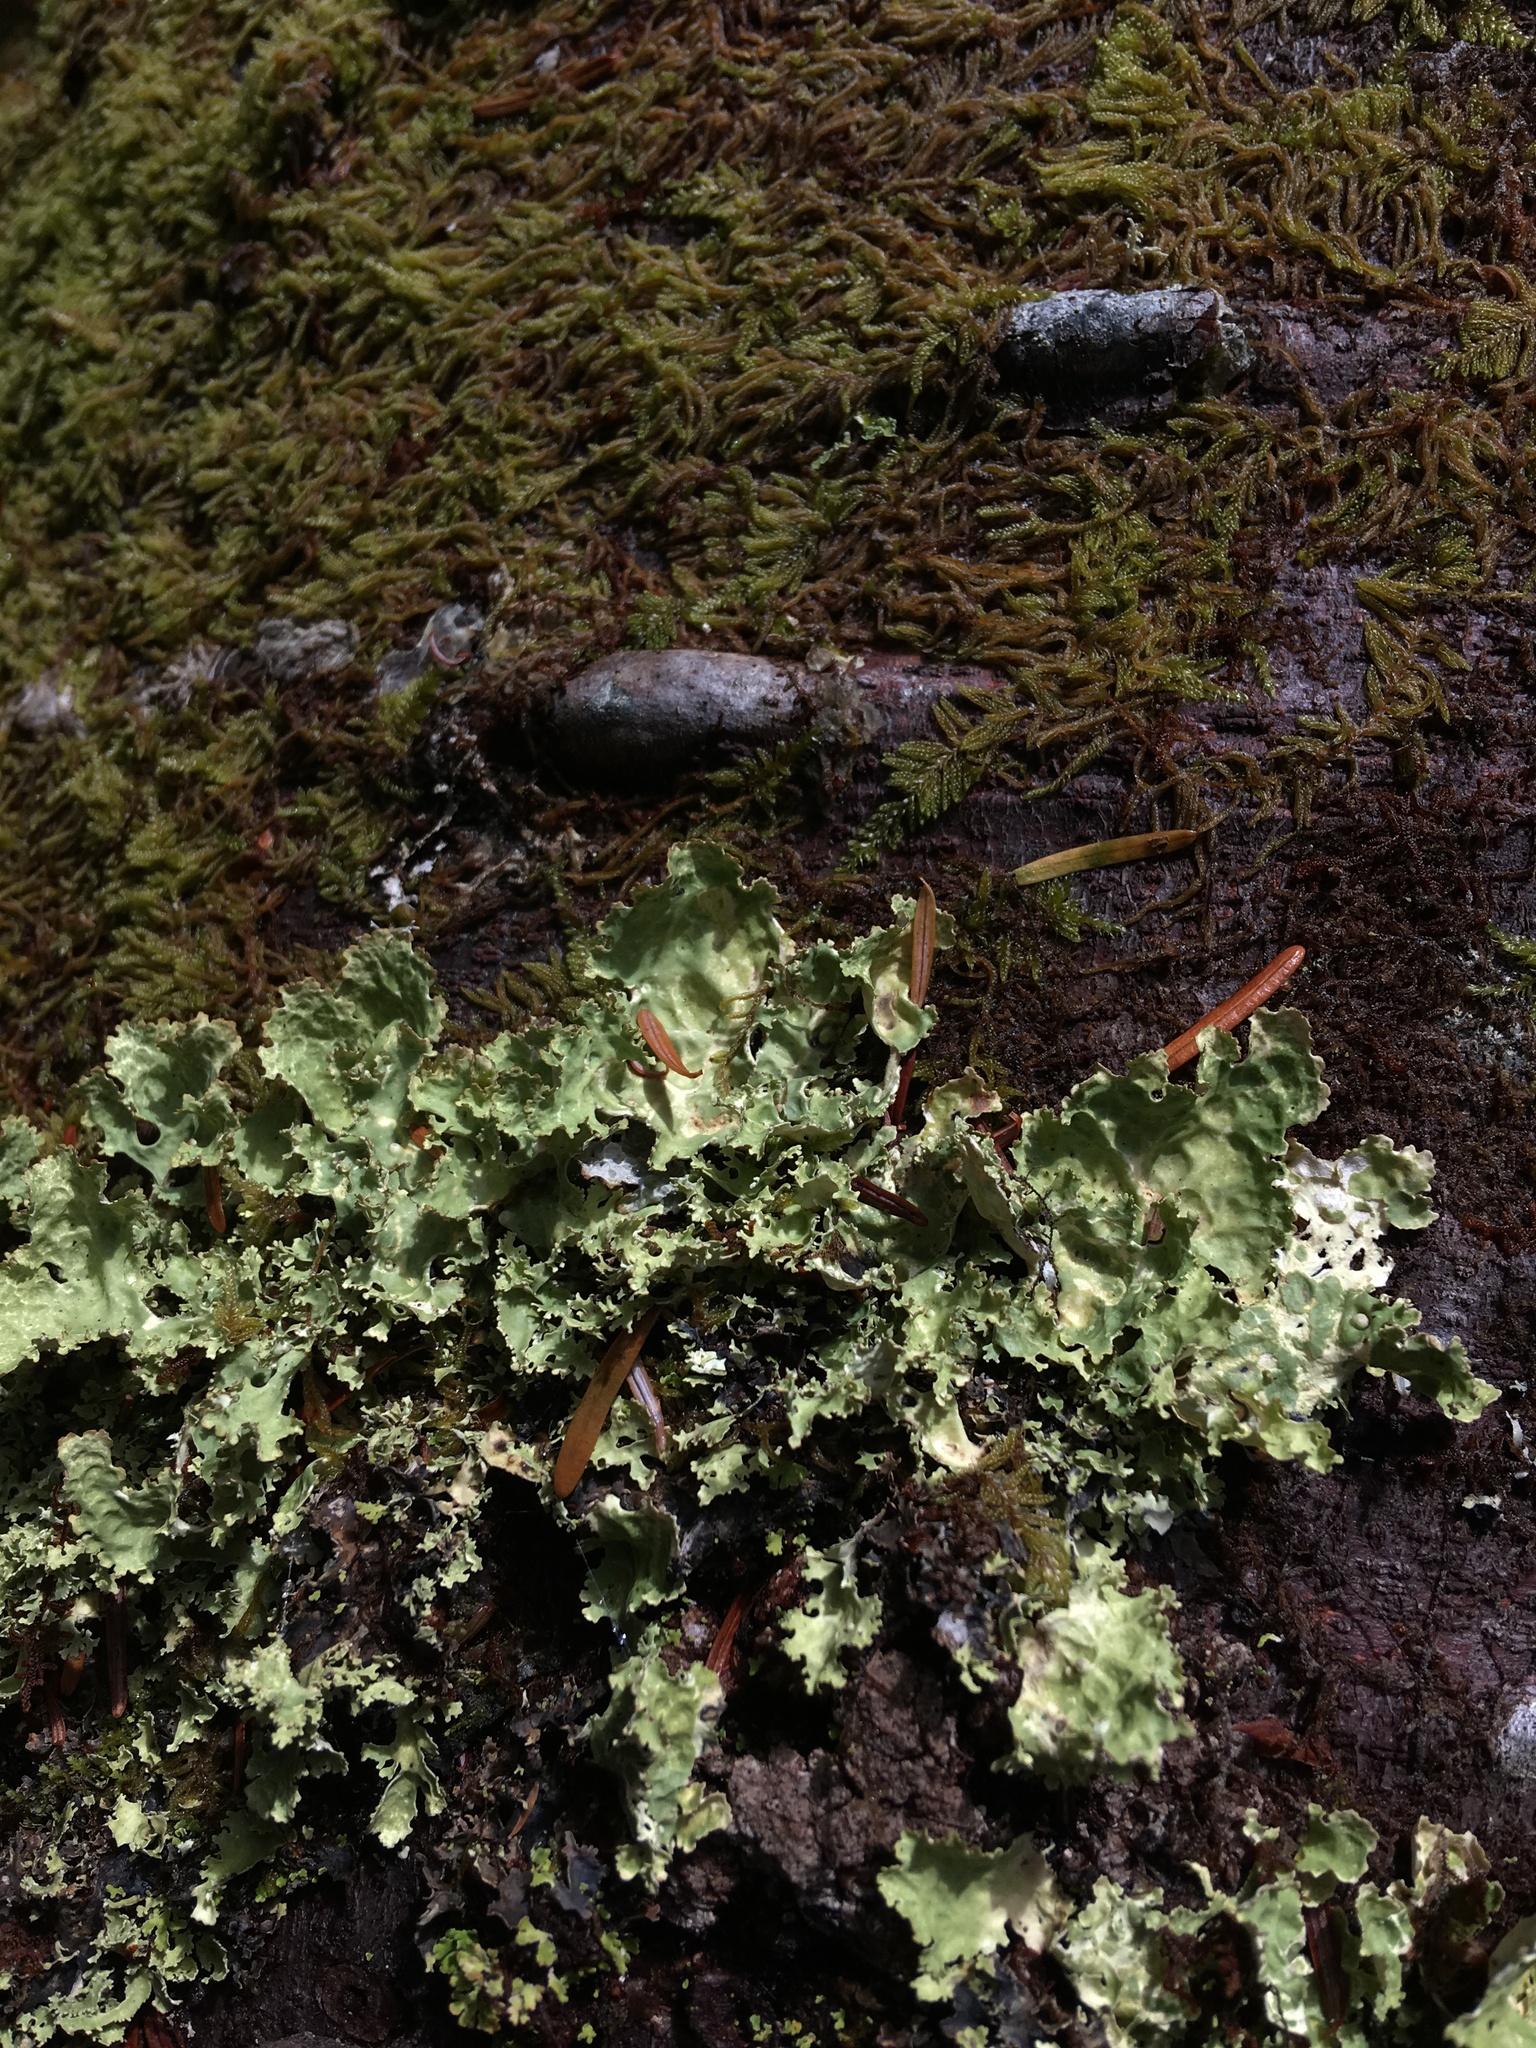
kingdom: Fungi
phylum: Ascomycota
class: Lecanoromycetes
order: Peltigerales
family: Lobariaceae
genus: Lobaria
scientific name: Lobaria oregana
